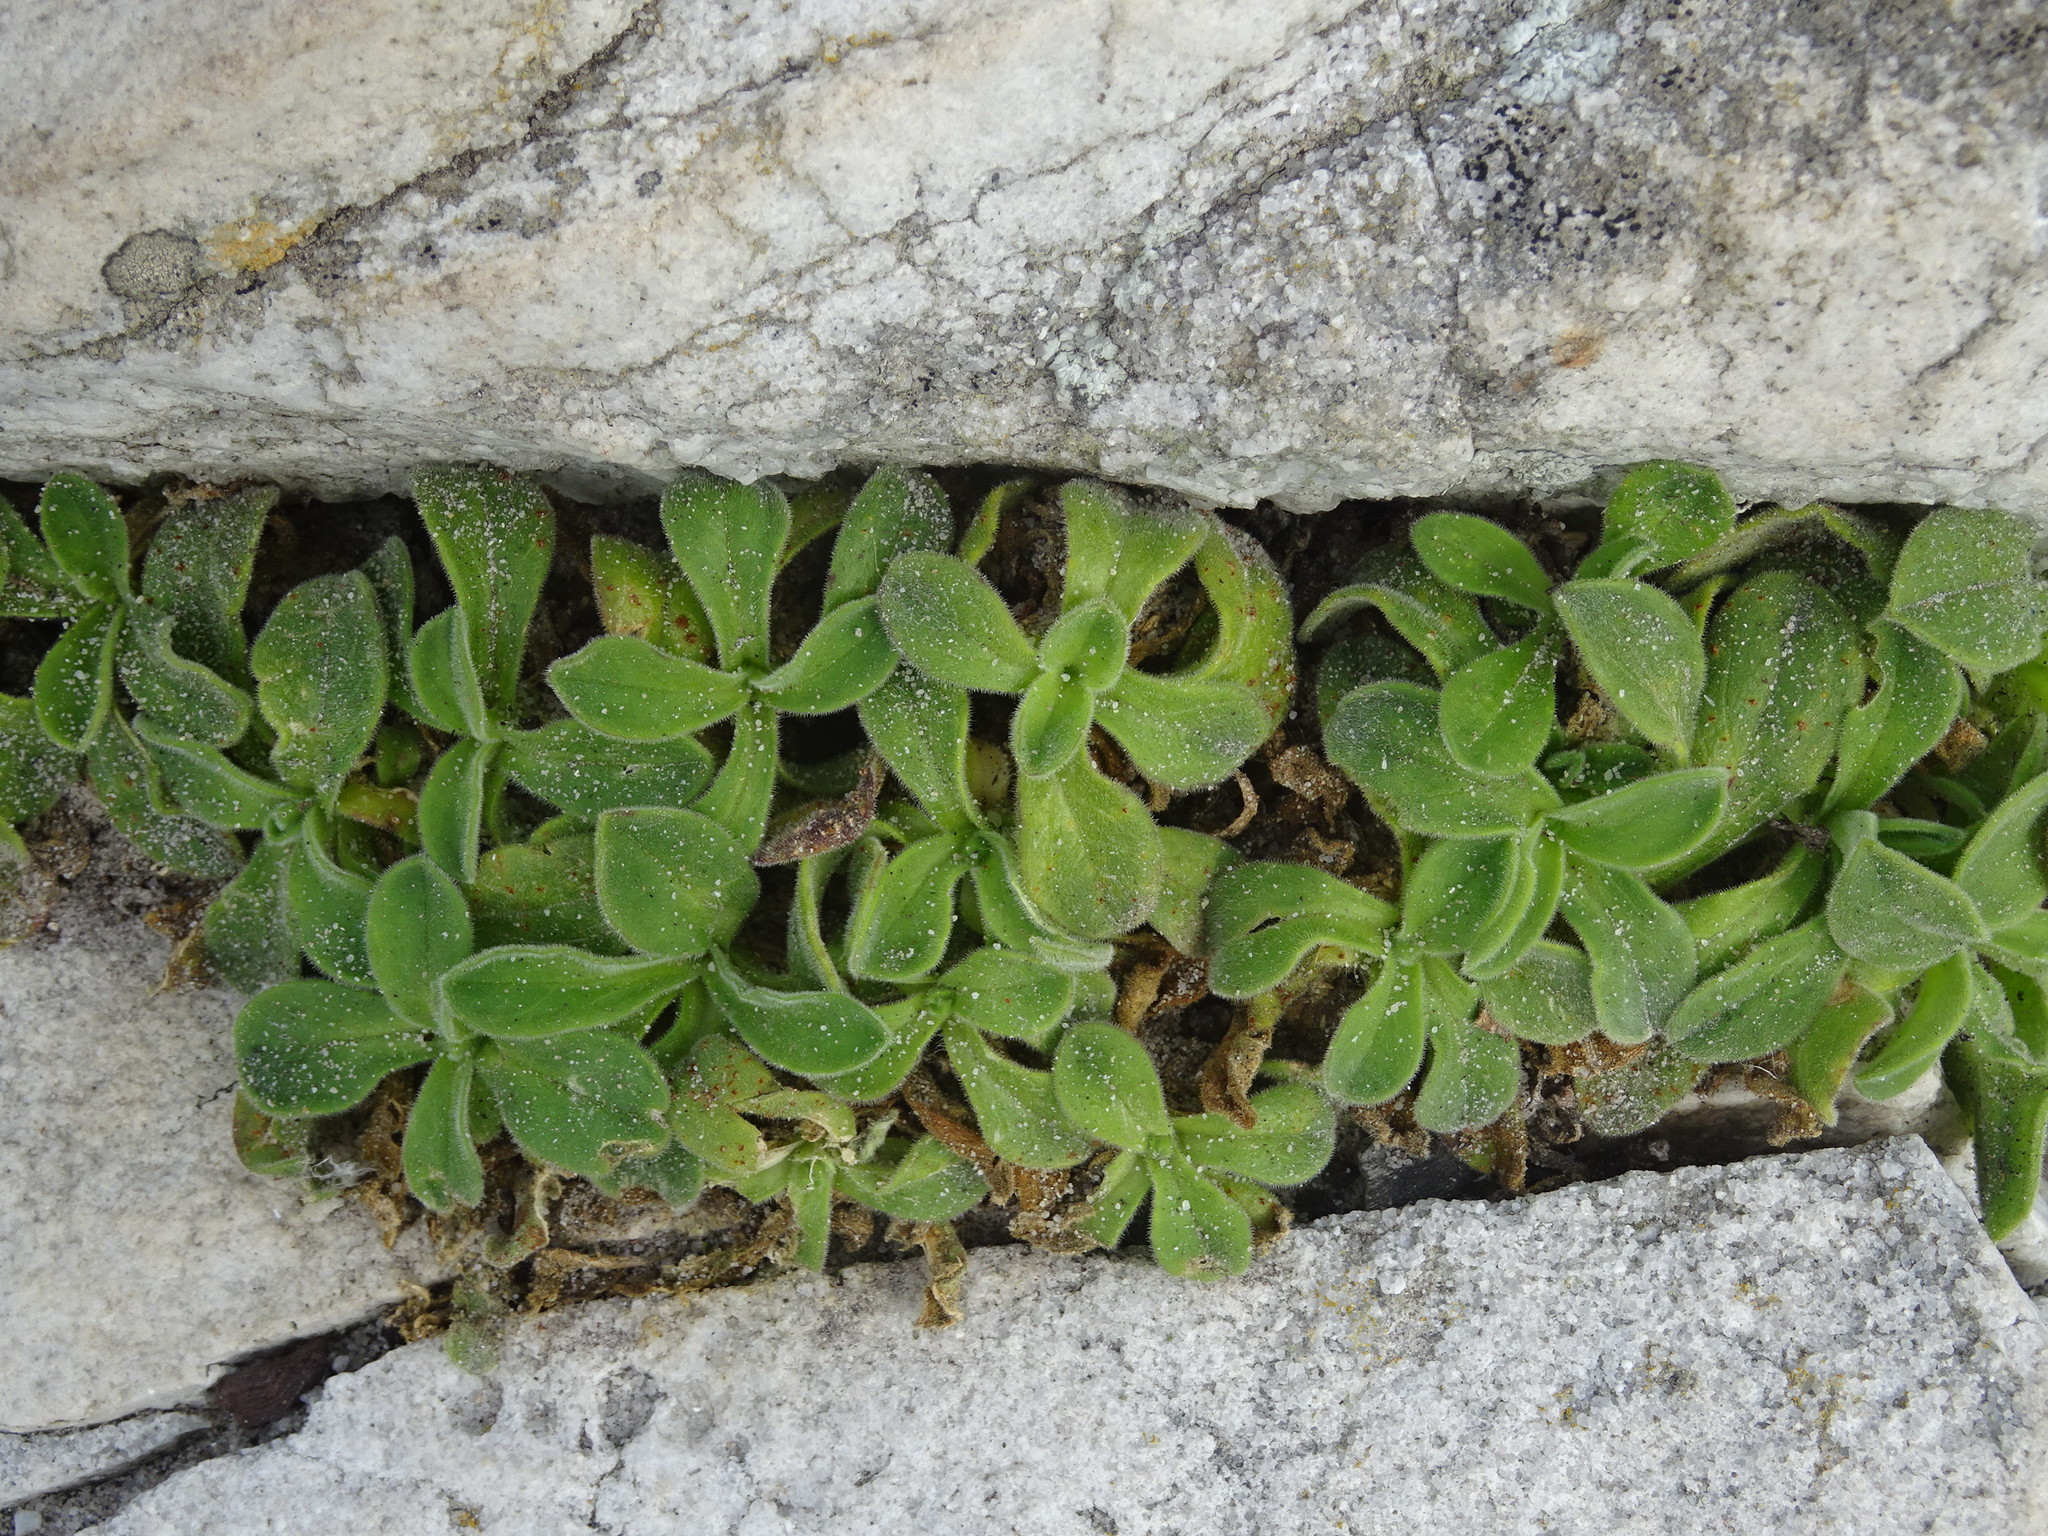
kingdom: Plantae
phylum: Tracheophyta
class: Magnoliopsida
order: Caryophyllales
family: Caryophyllaceae
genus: Silene
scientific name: Silene undulata
